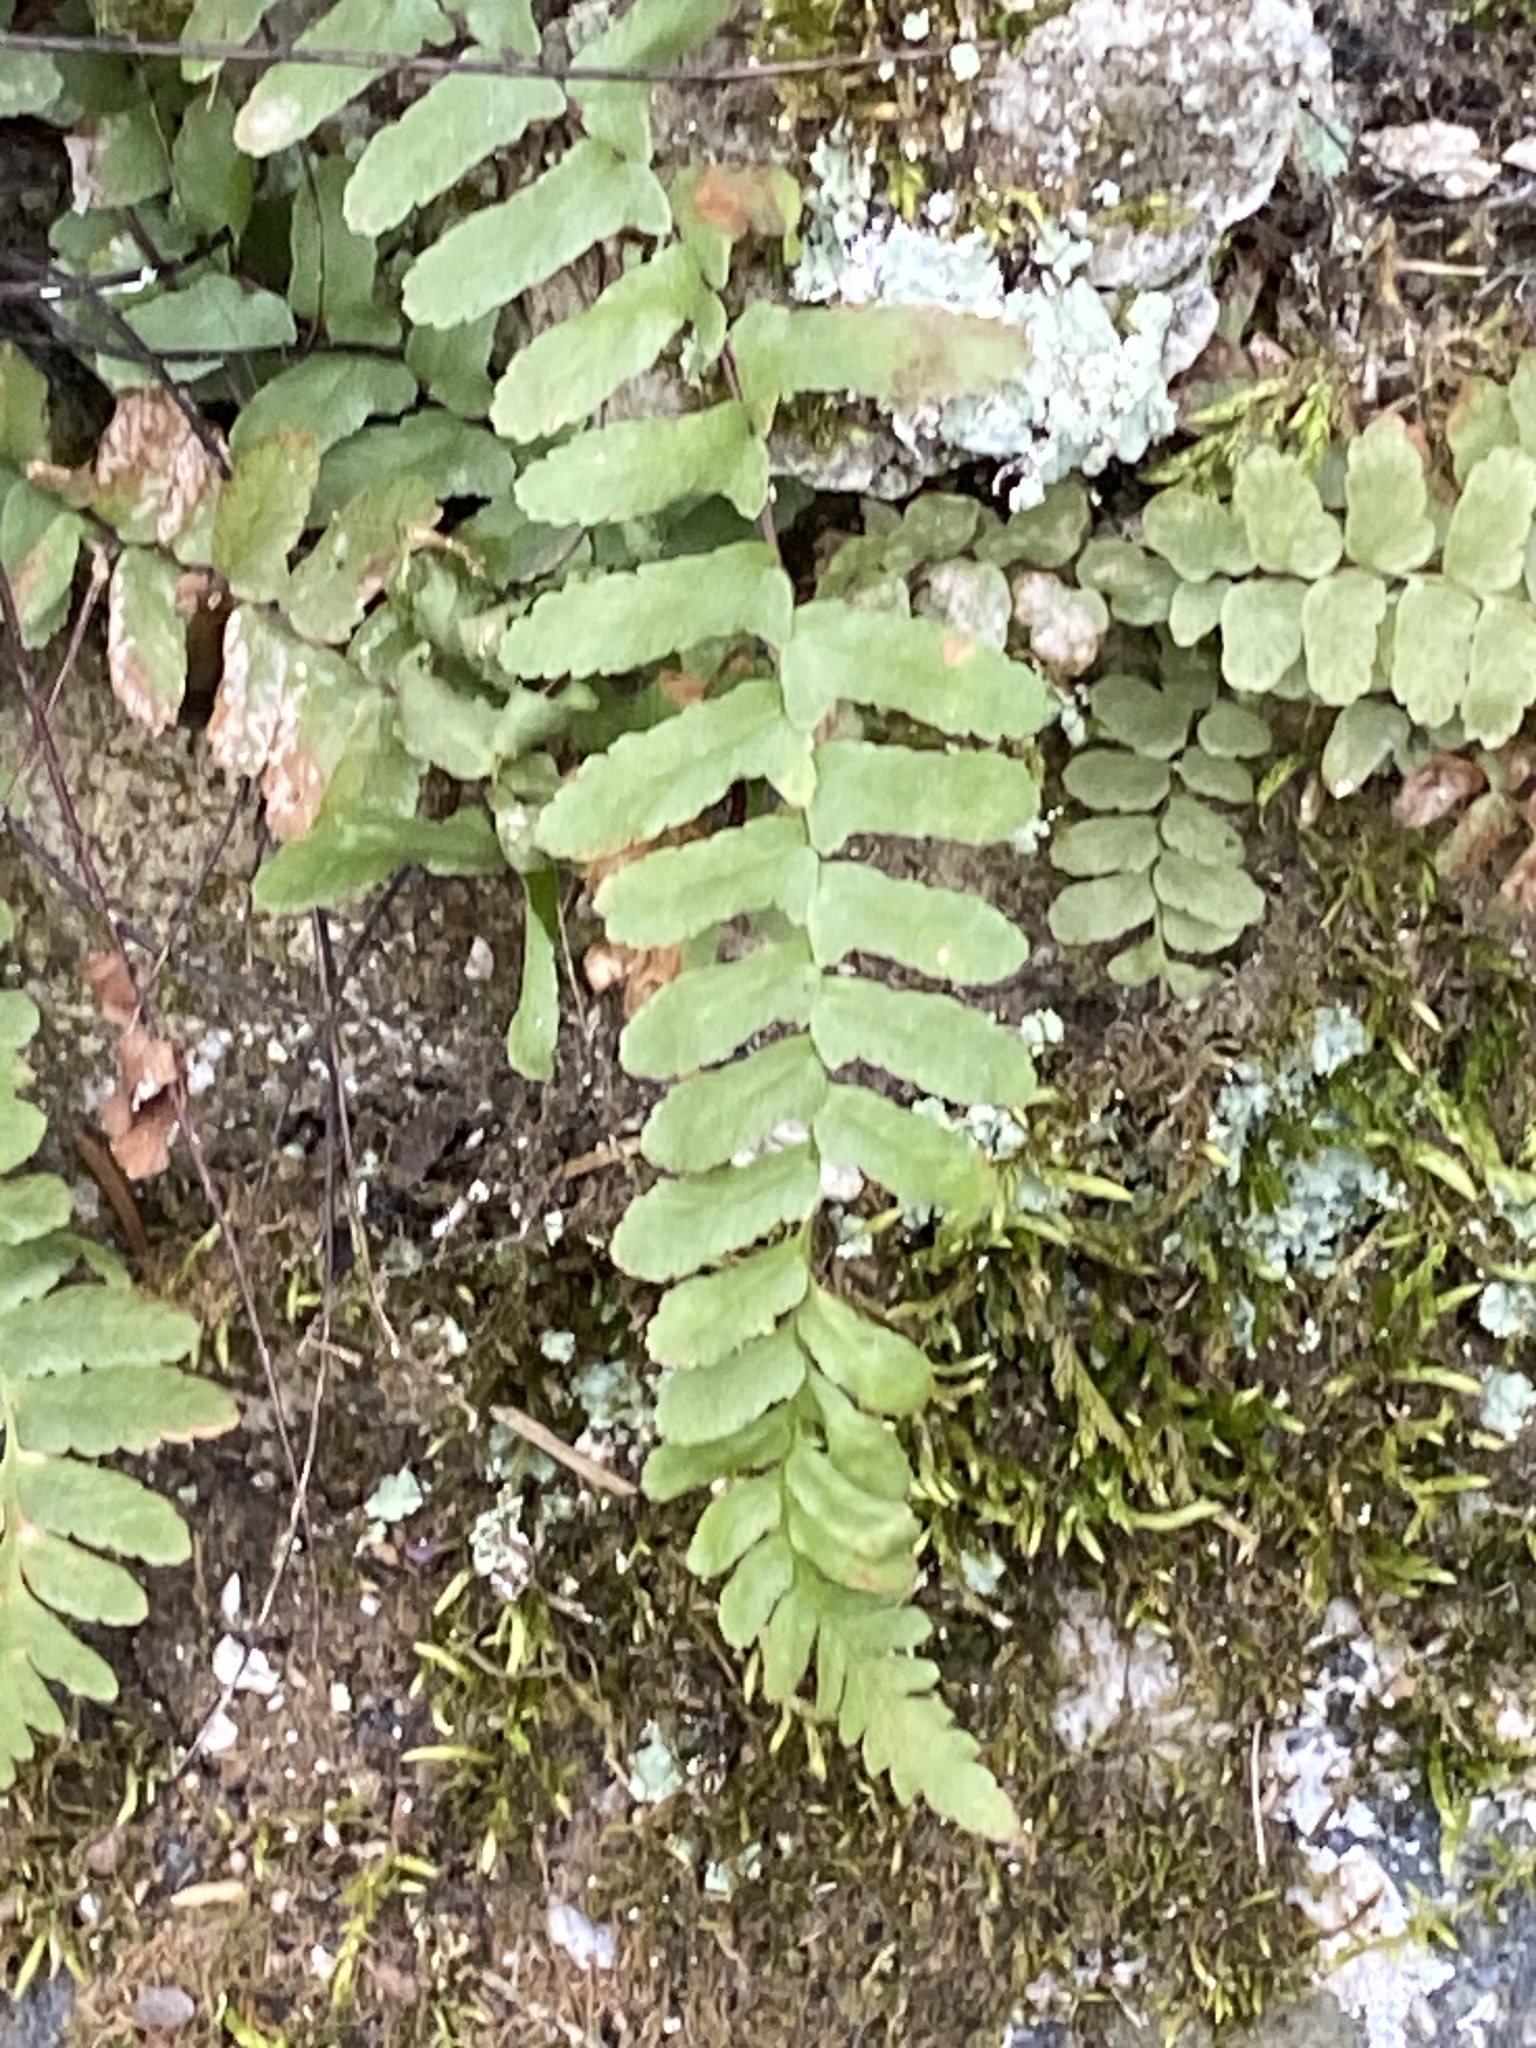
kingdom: Plantae
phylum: Tracheophyta
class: Polypodiopsida
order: Polypodiales
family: Aspleniaceae
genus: Asplenium
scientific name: Asplenium platyneuron
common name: Ebony spleenwort
